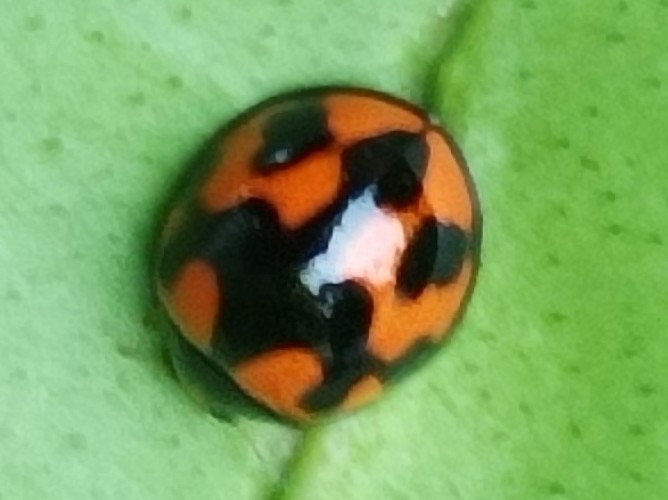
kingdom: Animalia
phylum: Arthropoda
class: Insecta
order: Coleoptera
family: Coccinellidae
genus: Coelophora
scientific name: Coelophora inaequalis
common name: Common australian lady beetle
